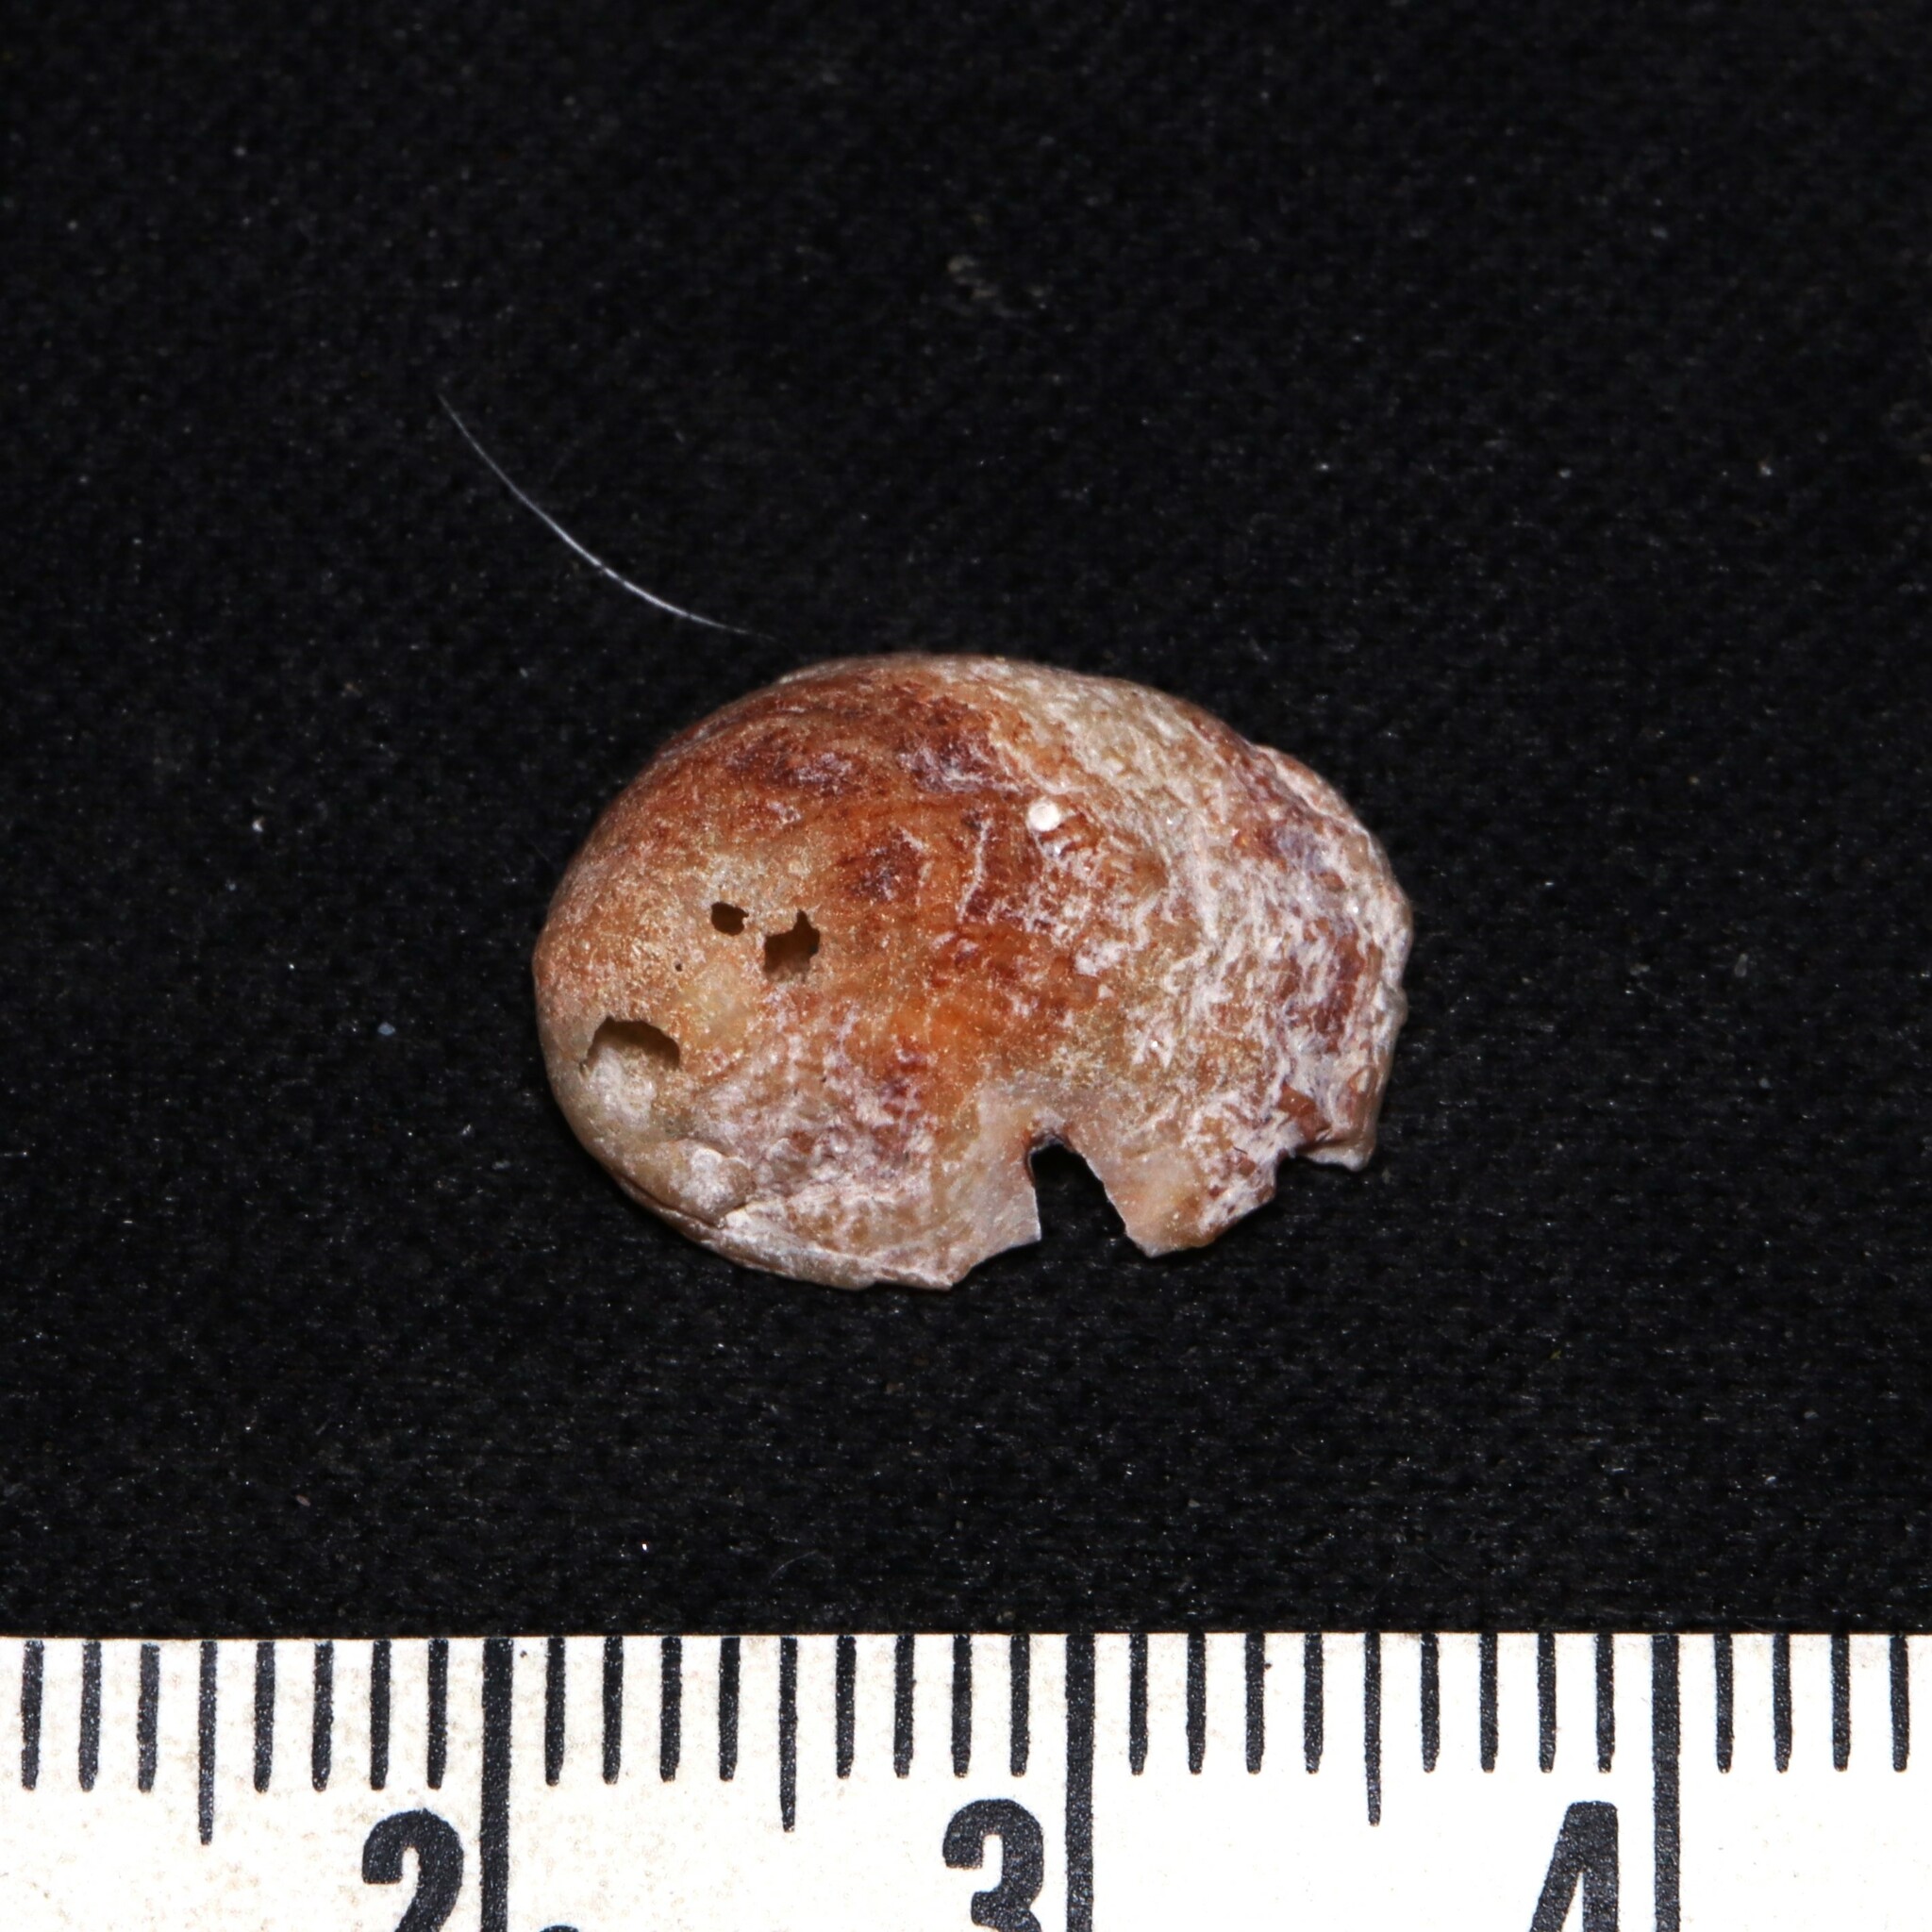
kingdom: Animalia
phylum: Mollusca
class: Gastropoda
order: Littorinimorpha
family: Calyptraeidae
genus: Bostrycapulus
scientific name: Bostrycapulus aculeatus
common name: Spiny slippersnail
